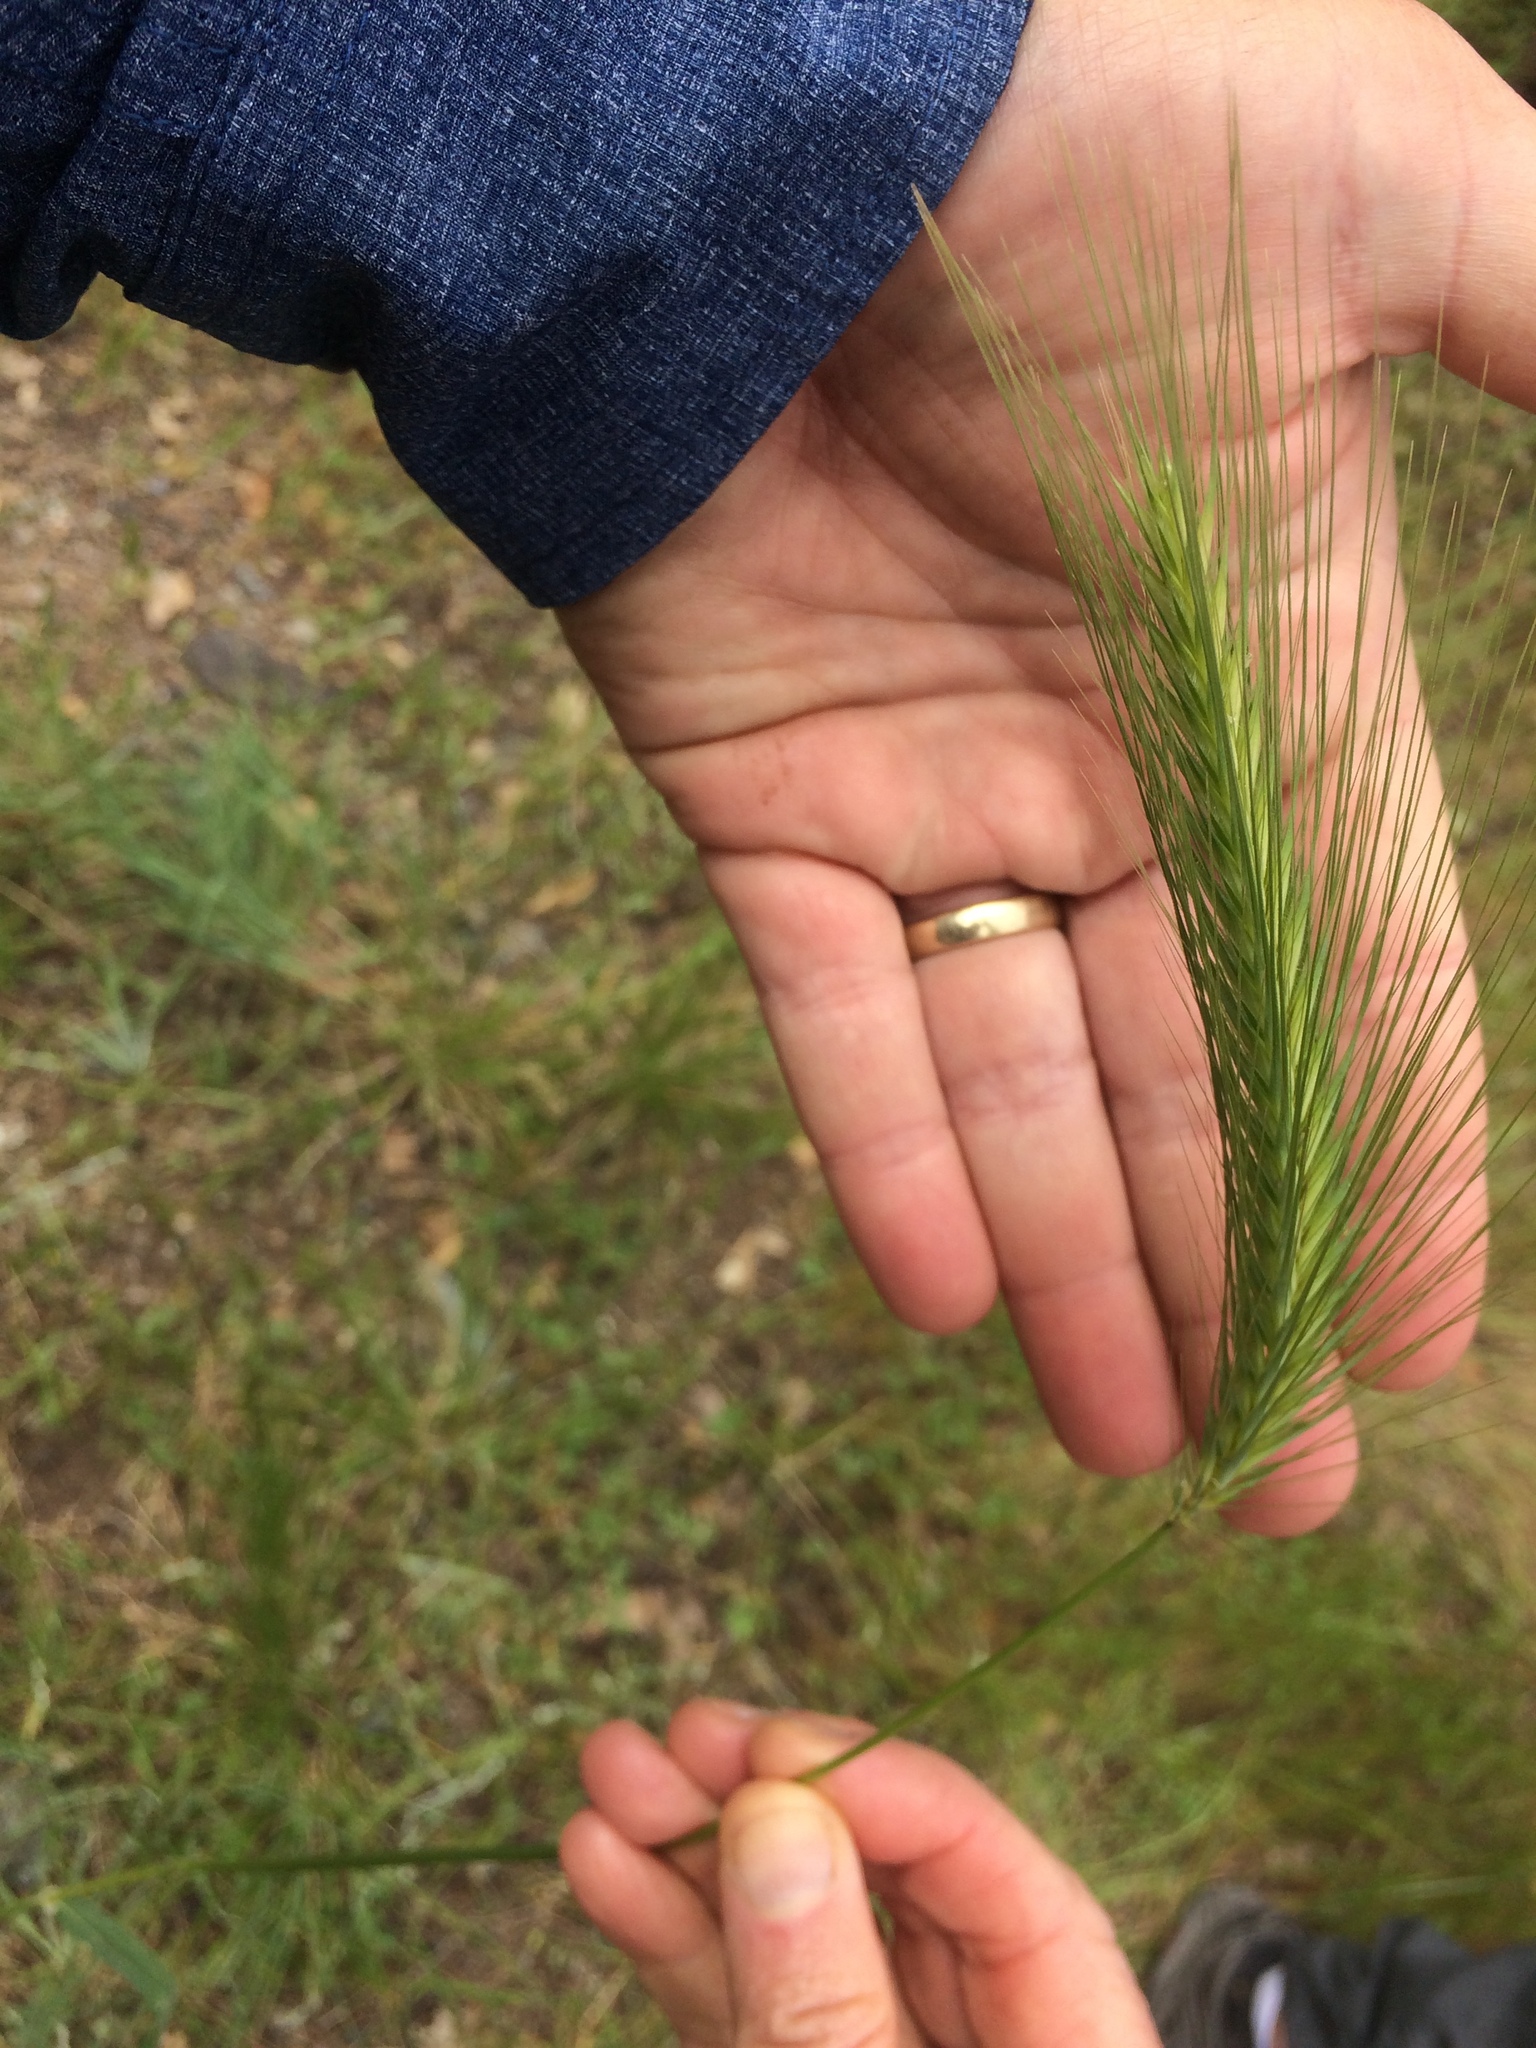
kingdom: Plantae
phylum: Tracheophyta
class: Liliopsida
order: Poales
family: Poaceae
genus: Hordeum
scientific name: Hordeum murinum
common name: Wall barley
